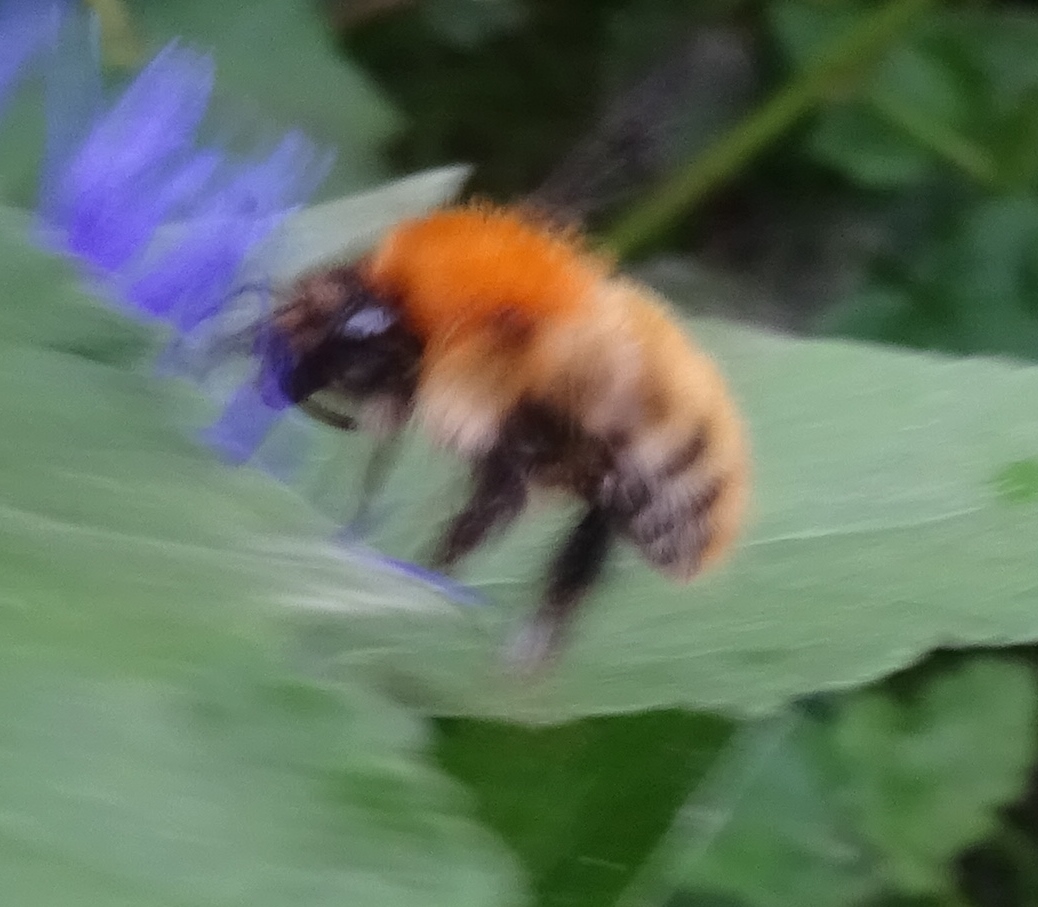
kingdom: Animalia
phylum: Arthropoda
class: Insecta
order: Hymenoptera
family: Apidae
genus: Bombus
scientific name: Bombus pascuorum
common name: Common carder bee
